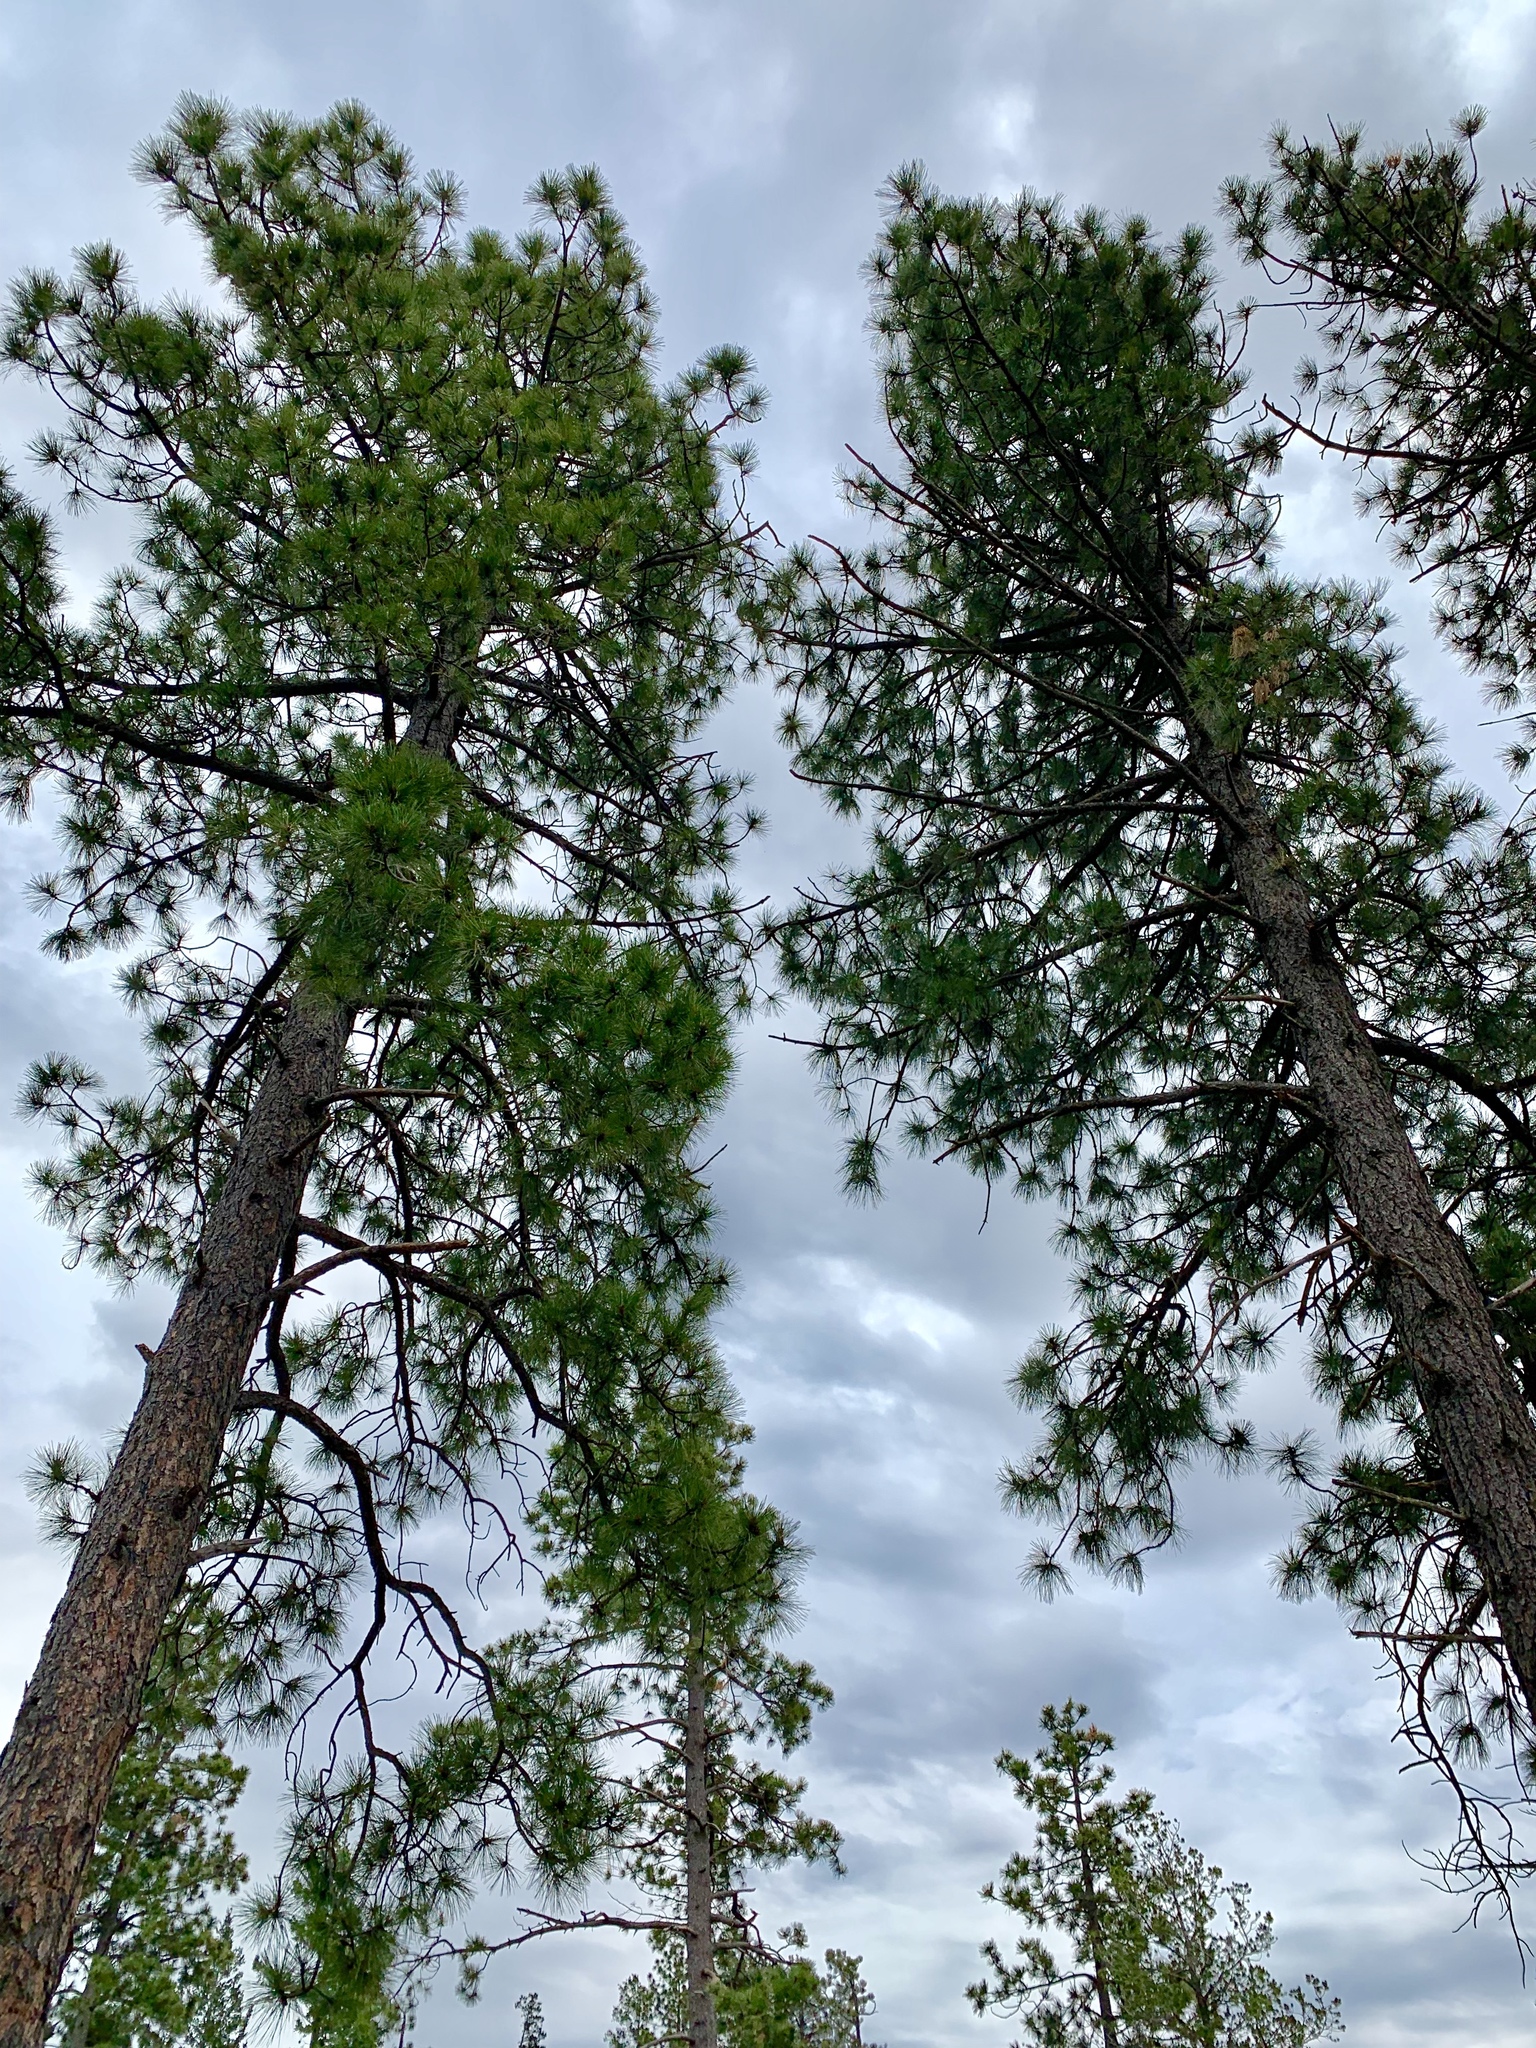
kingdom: Plantae
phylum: Tracheophyta
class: Pinopsida
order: Pinales
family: Pinaceae
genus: Pinus
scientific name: Pinus ponderosa
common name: Western yellow-pine
